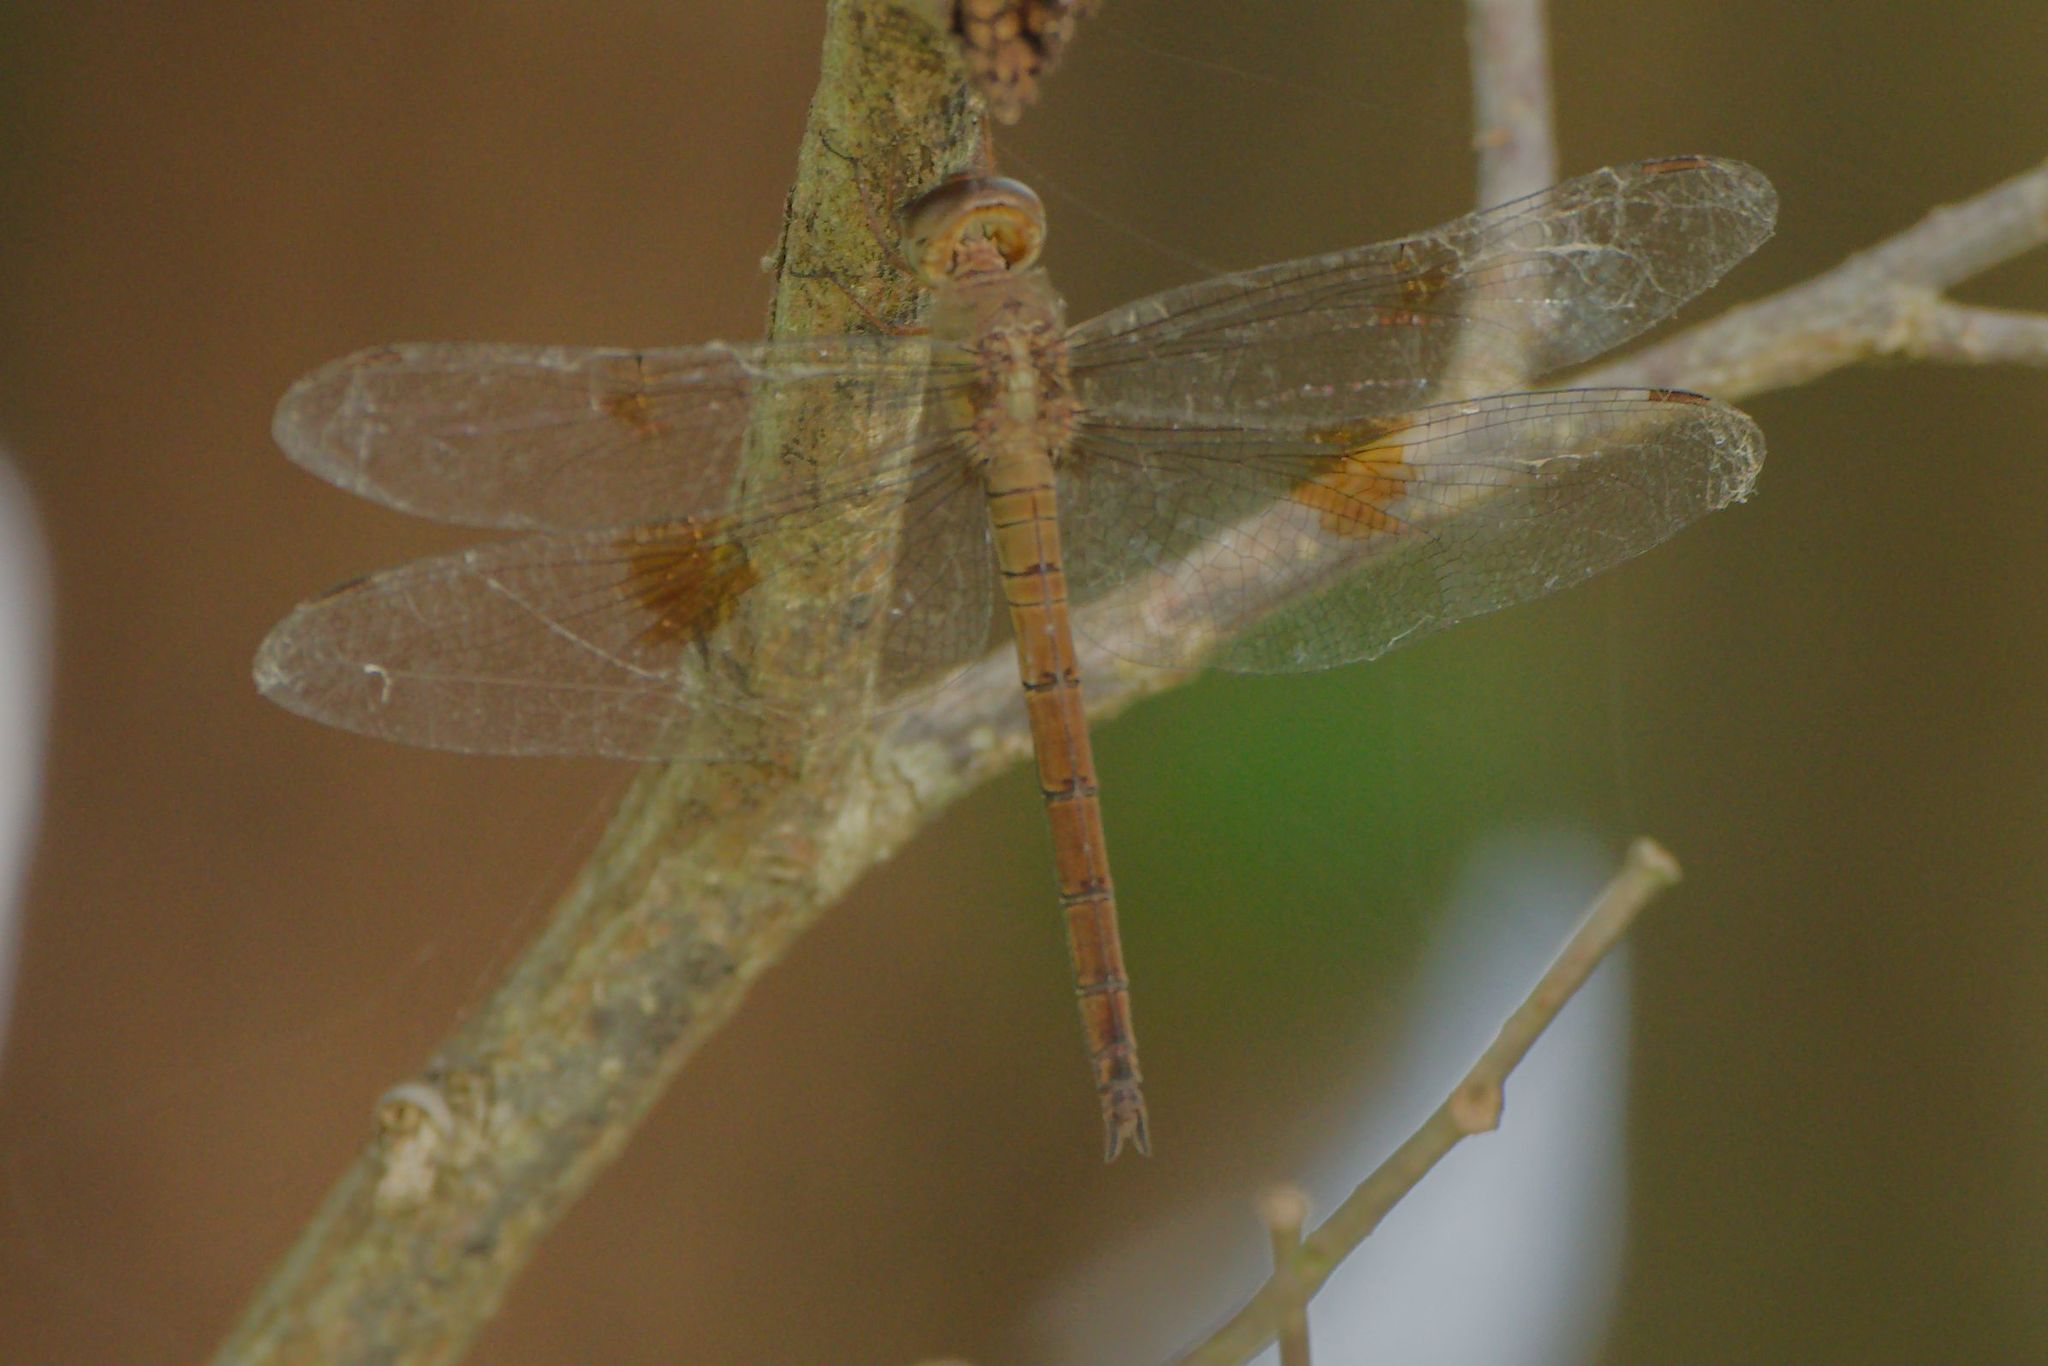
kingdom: Animalia
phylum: Arthropoda
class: Insecta
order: Odonata
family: Libellulidae
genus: Tholymis
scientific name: Tholymis citrina
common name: Evening skimmer
